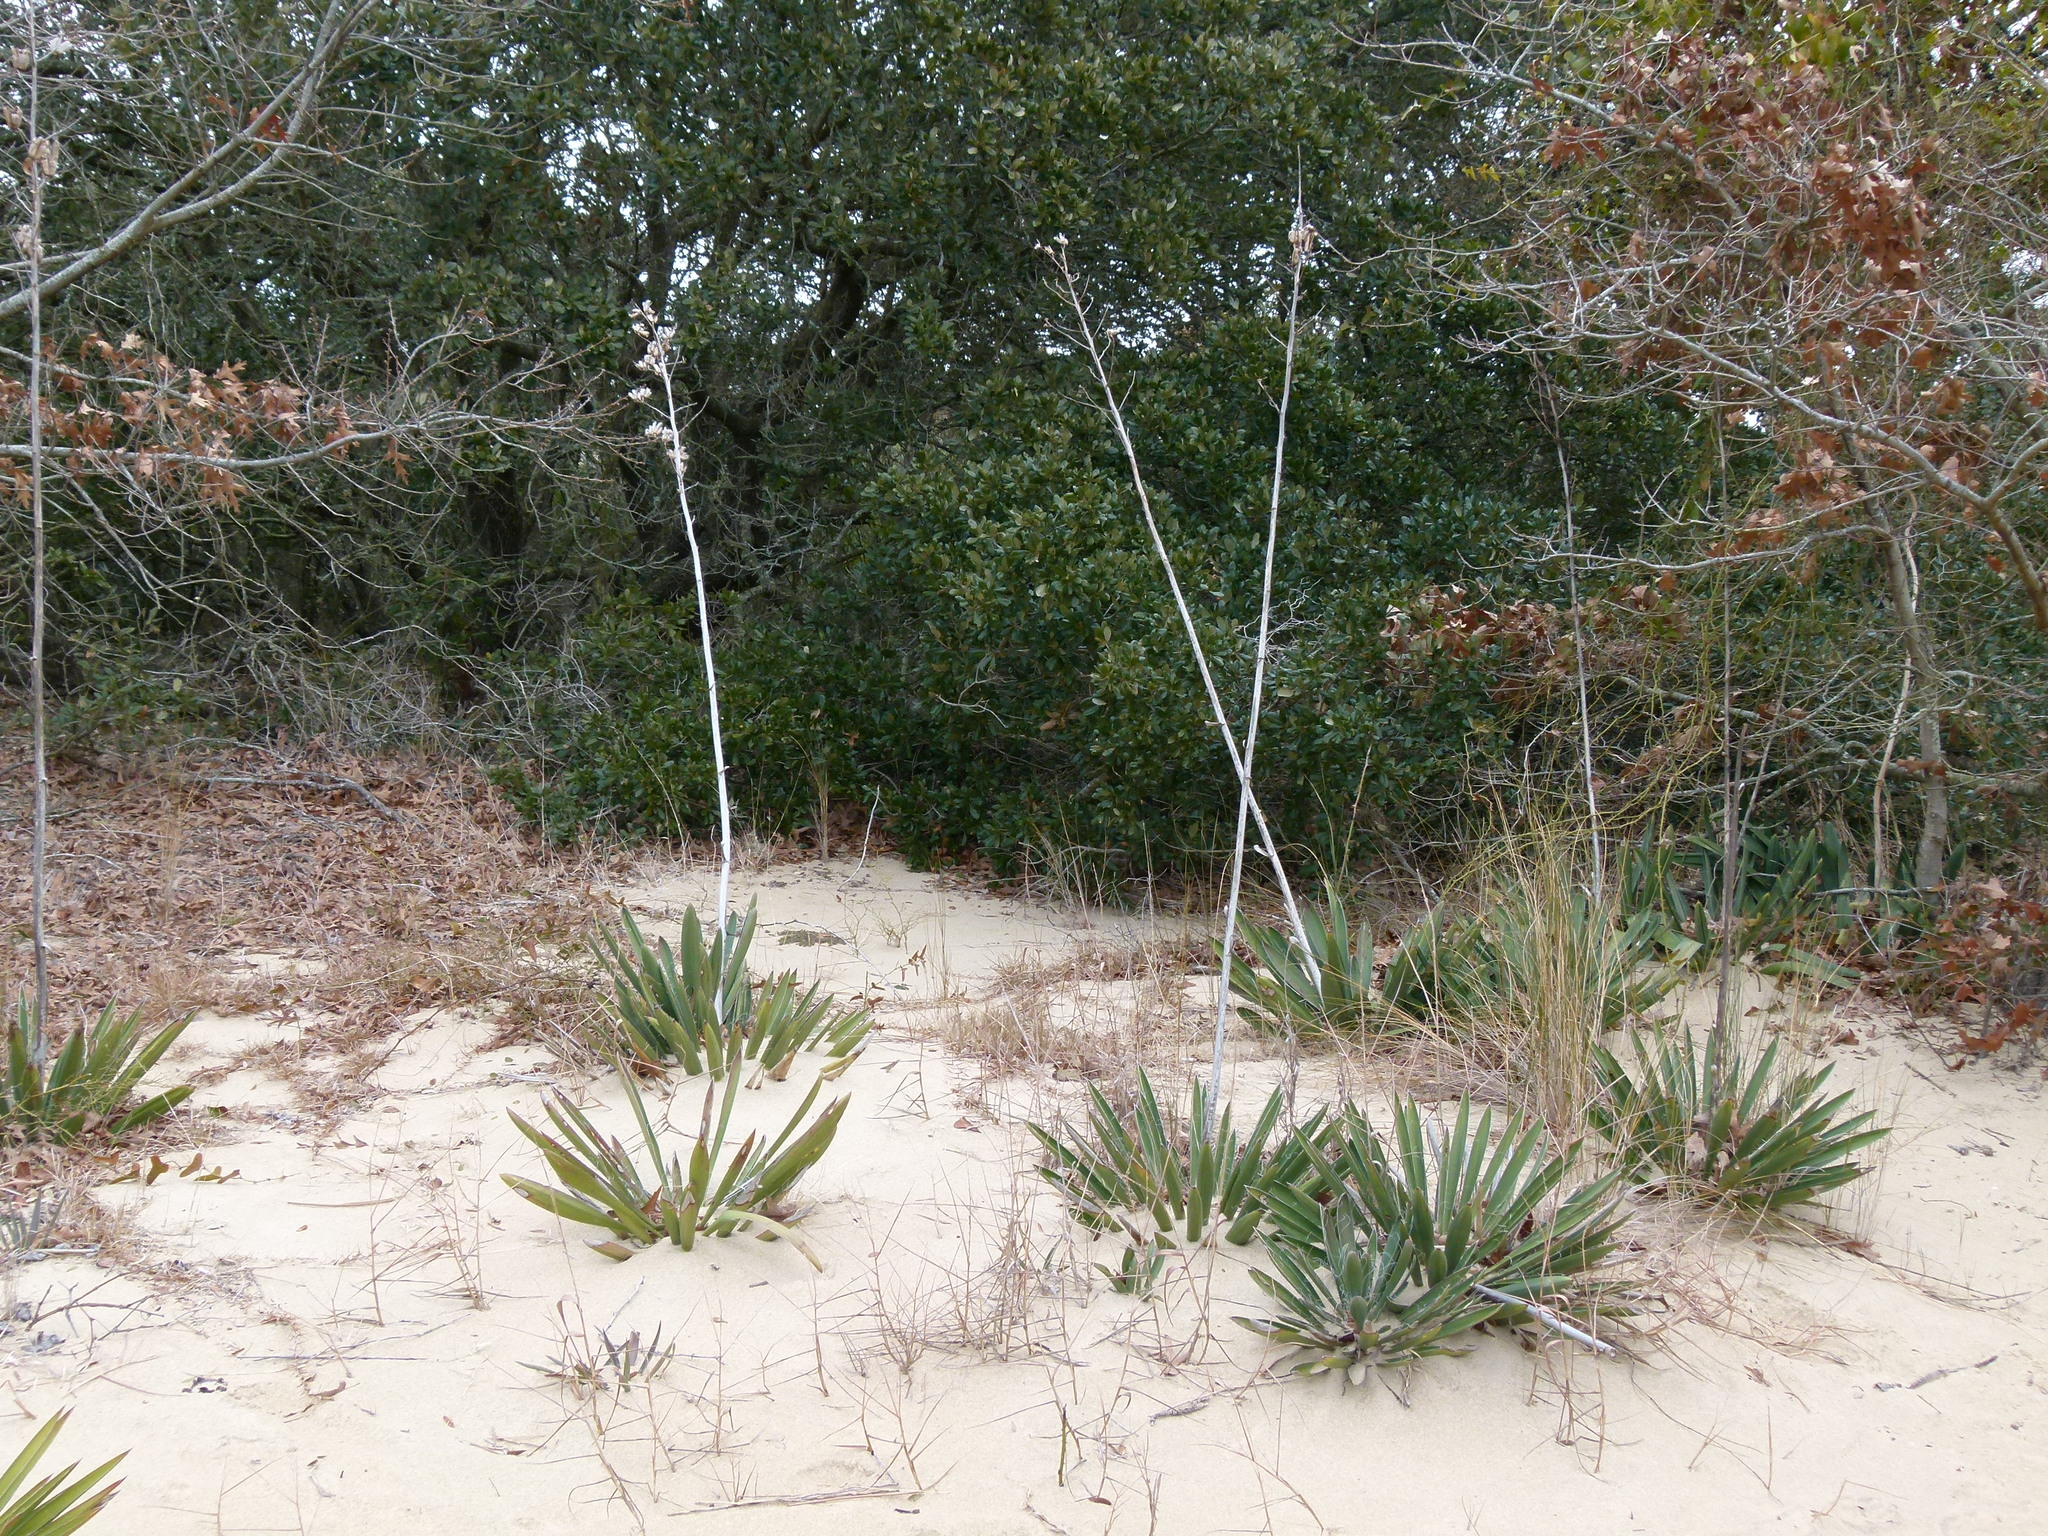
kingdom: Plantae
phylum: Tracheophyta
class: Liliopsida
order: Asparagales
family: Asparagaceae
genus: Yucca
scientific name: Yucca filamentosa
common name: Adam's-needle
